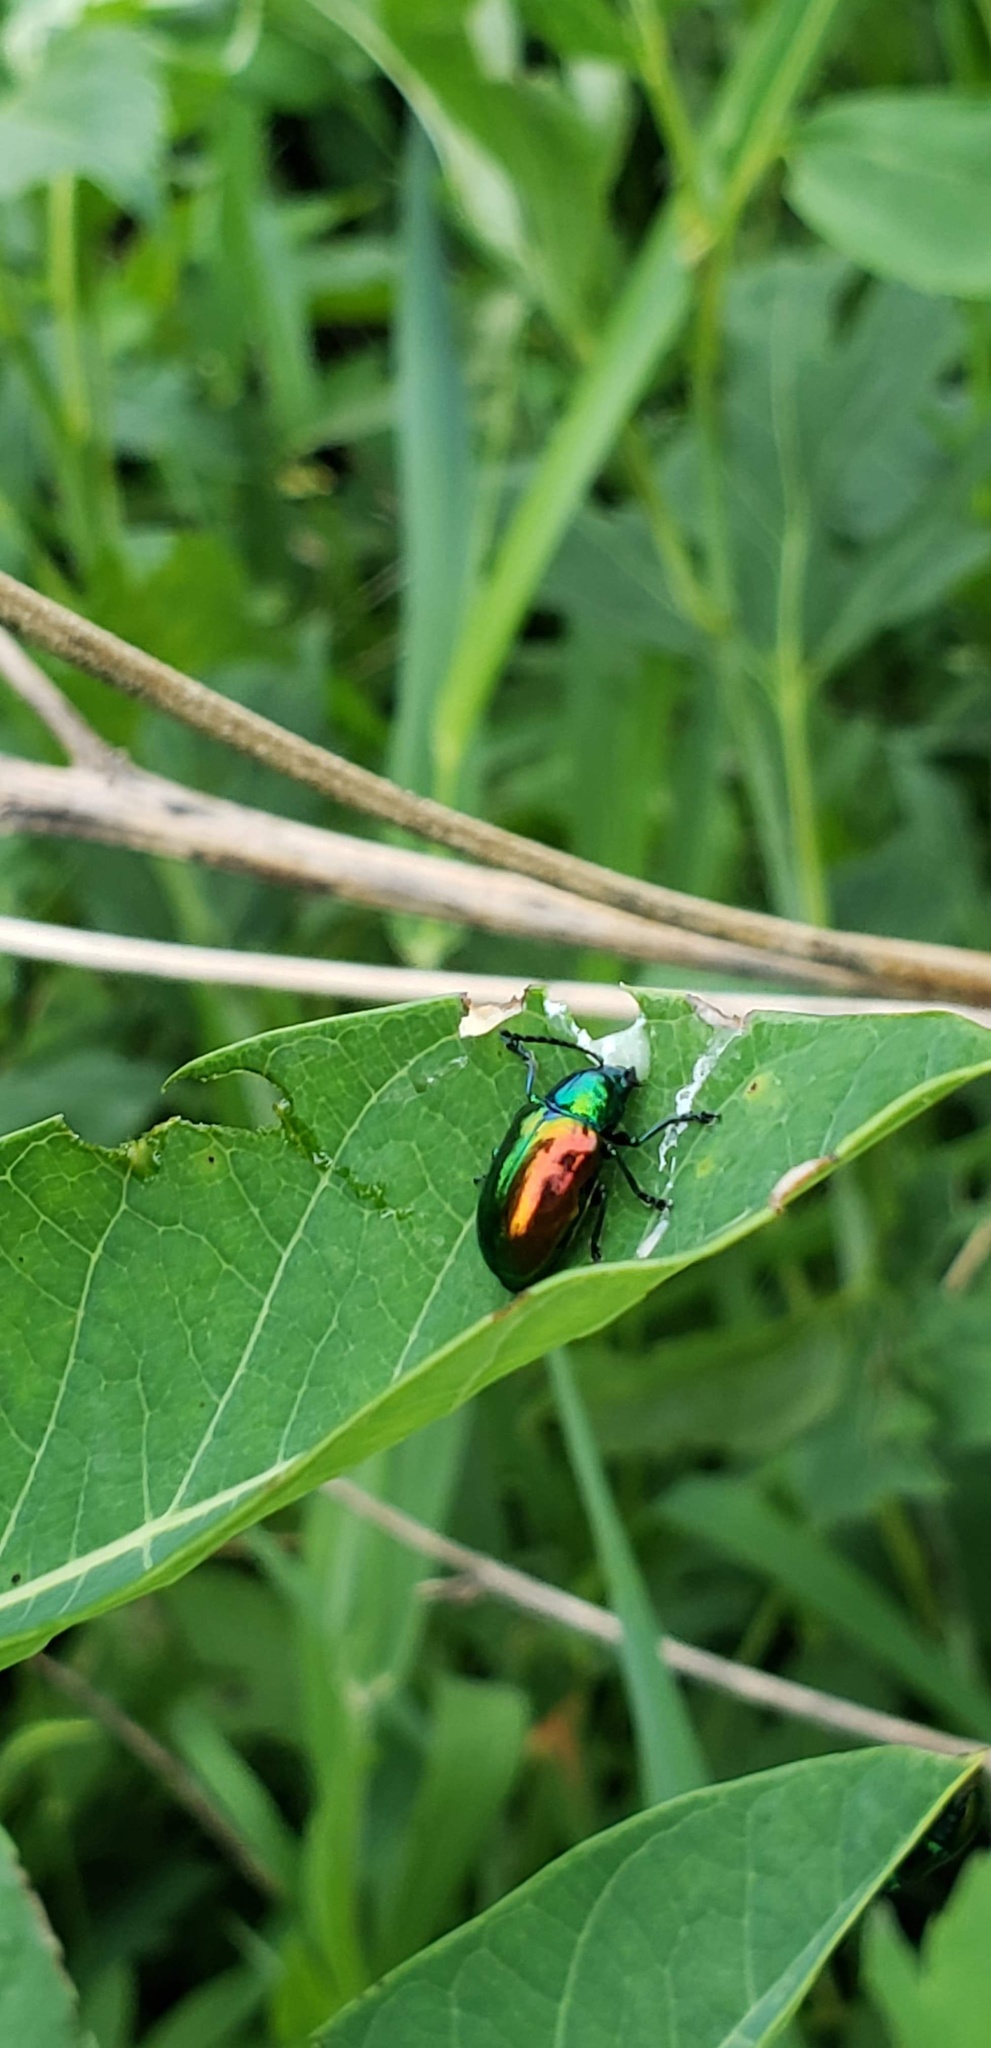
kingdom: Animalia
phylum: Arthropoda
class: Insecta
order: Coleoptera
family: Chrysomelidae
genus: Chrysochus
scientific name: Chrysochus auratus
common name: Dogbane leaf beetle
